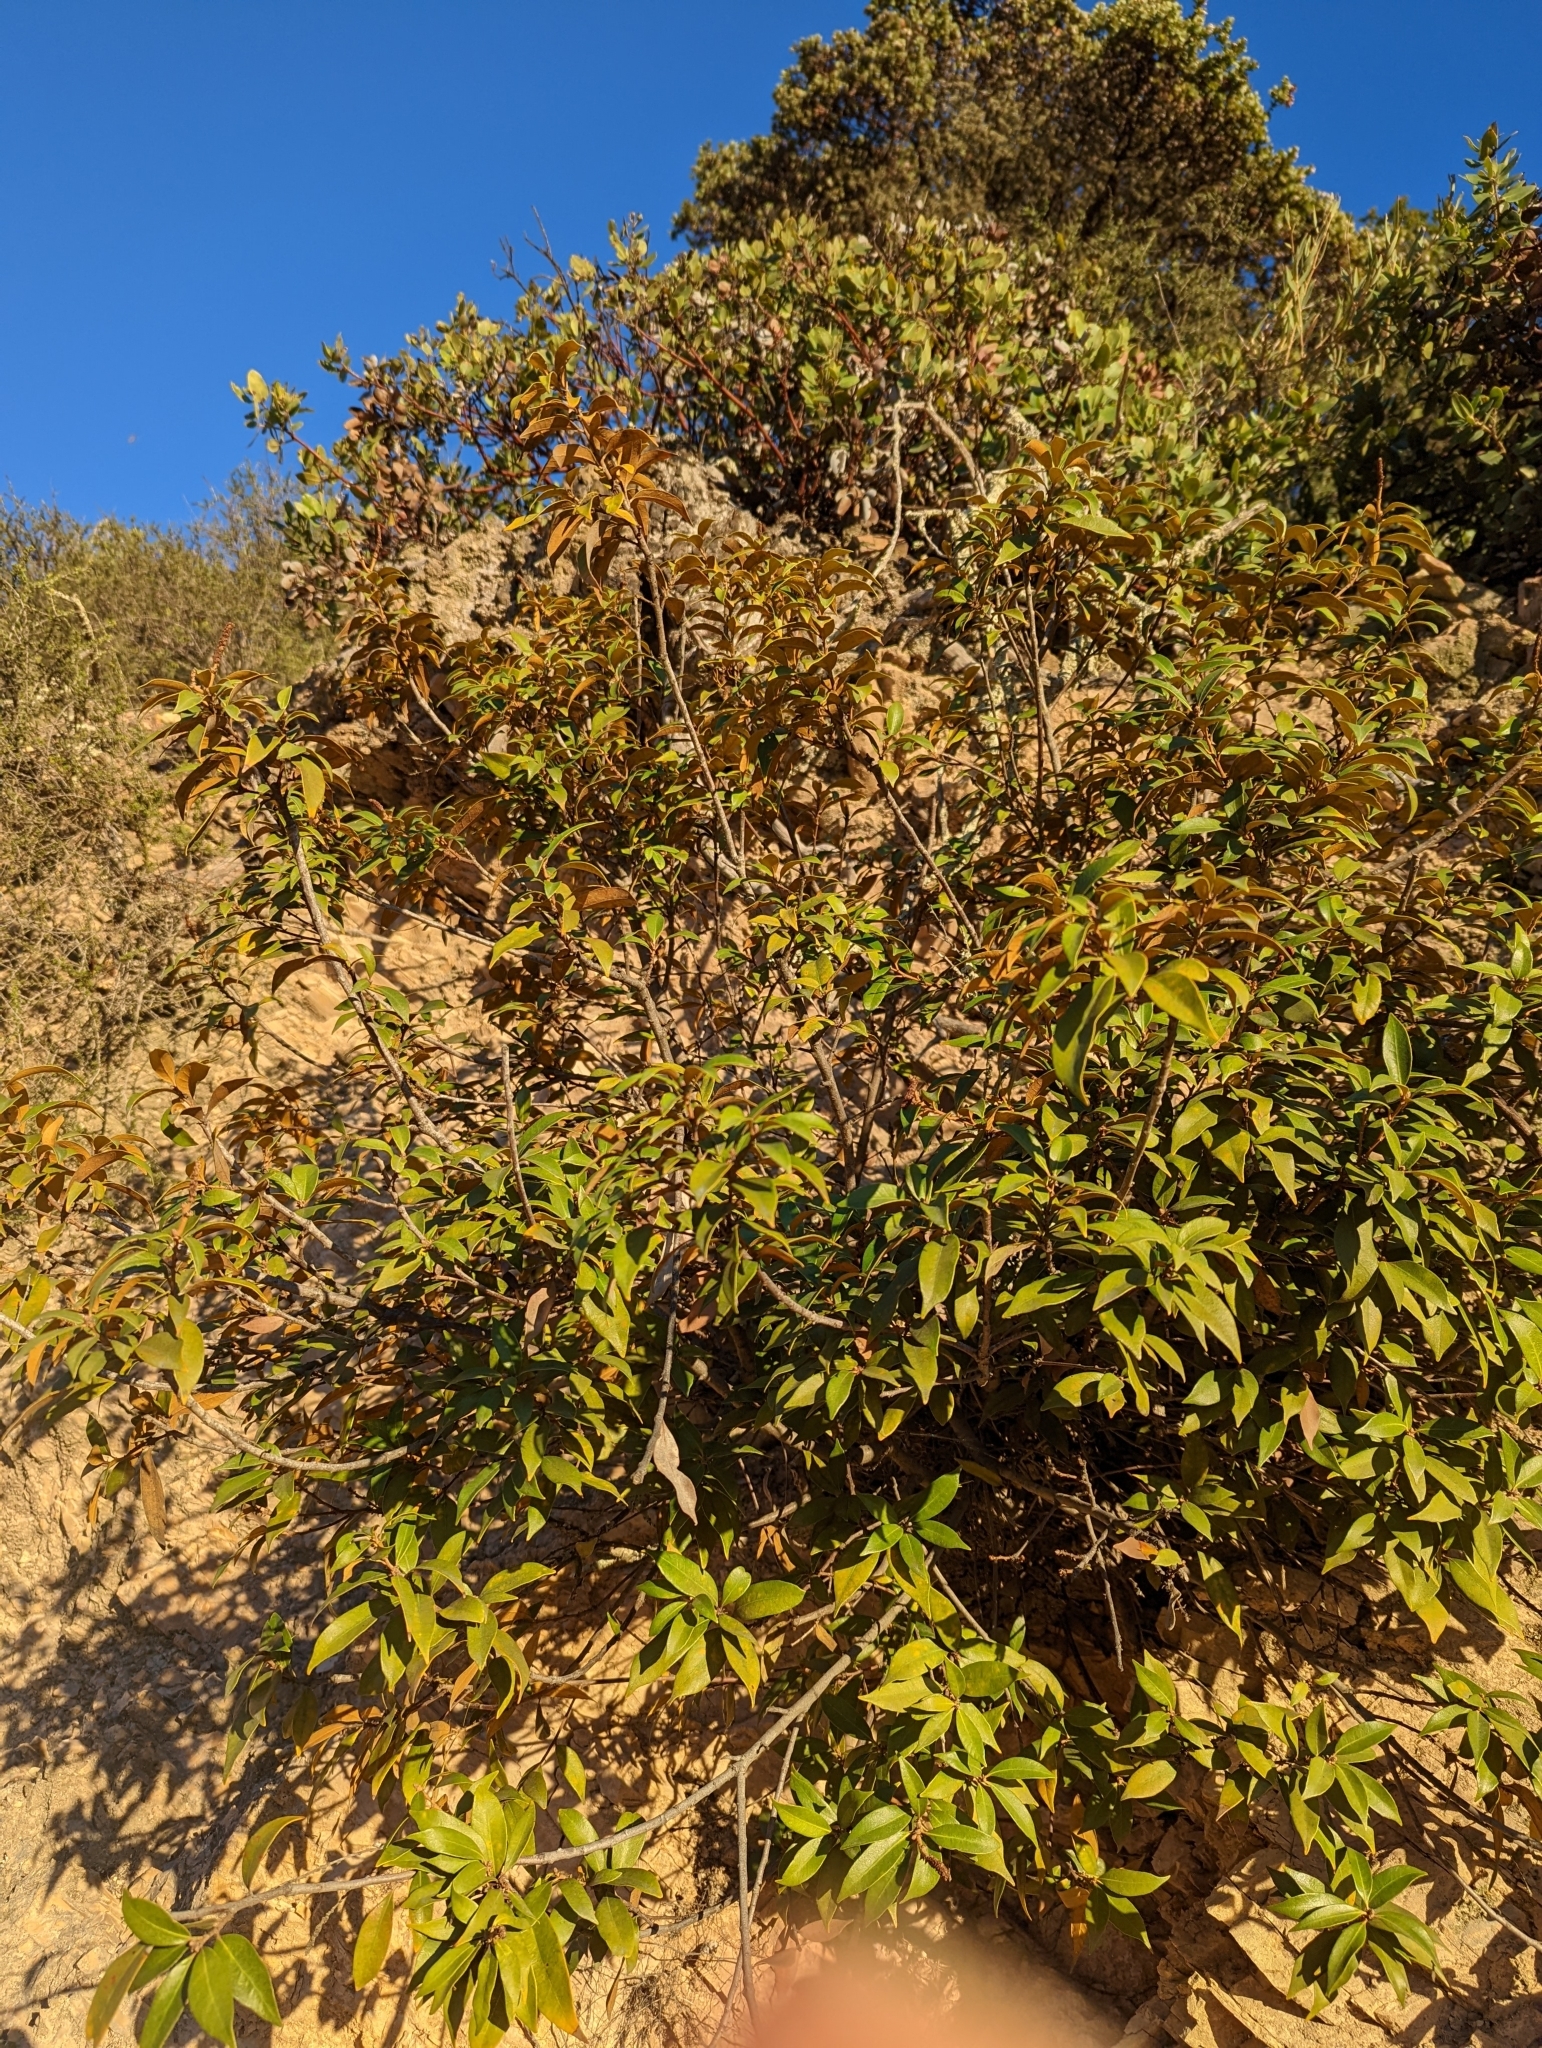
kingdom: Plantae
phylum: Tracheophyta
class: Magnoliopsida
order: Fagales
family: Fagaceae
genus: Chrysolepis
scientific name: Chrysolepis chrysophylla
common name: Giant chinquapin
